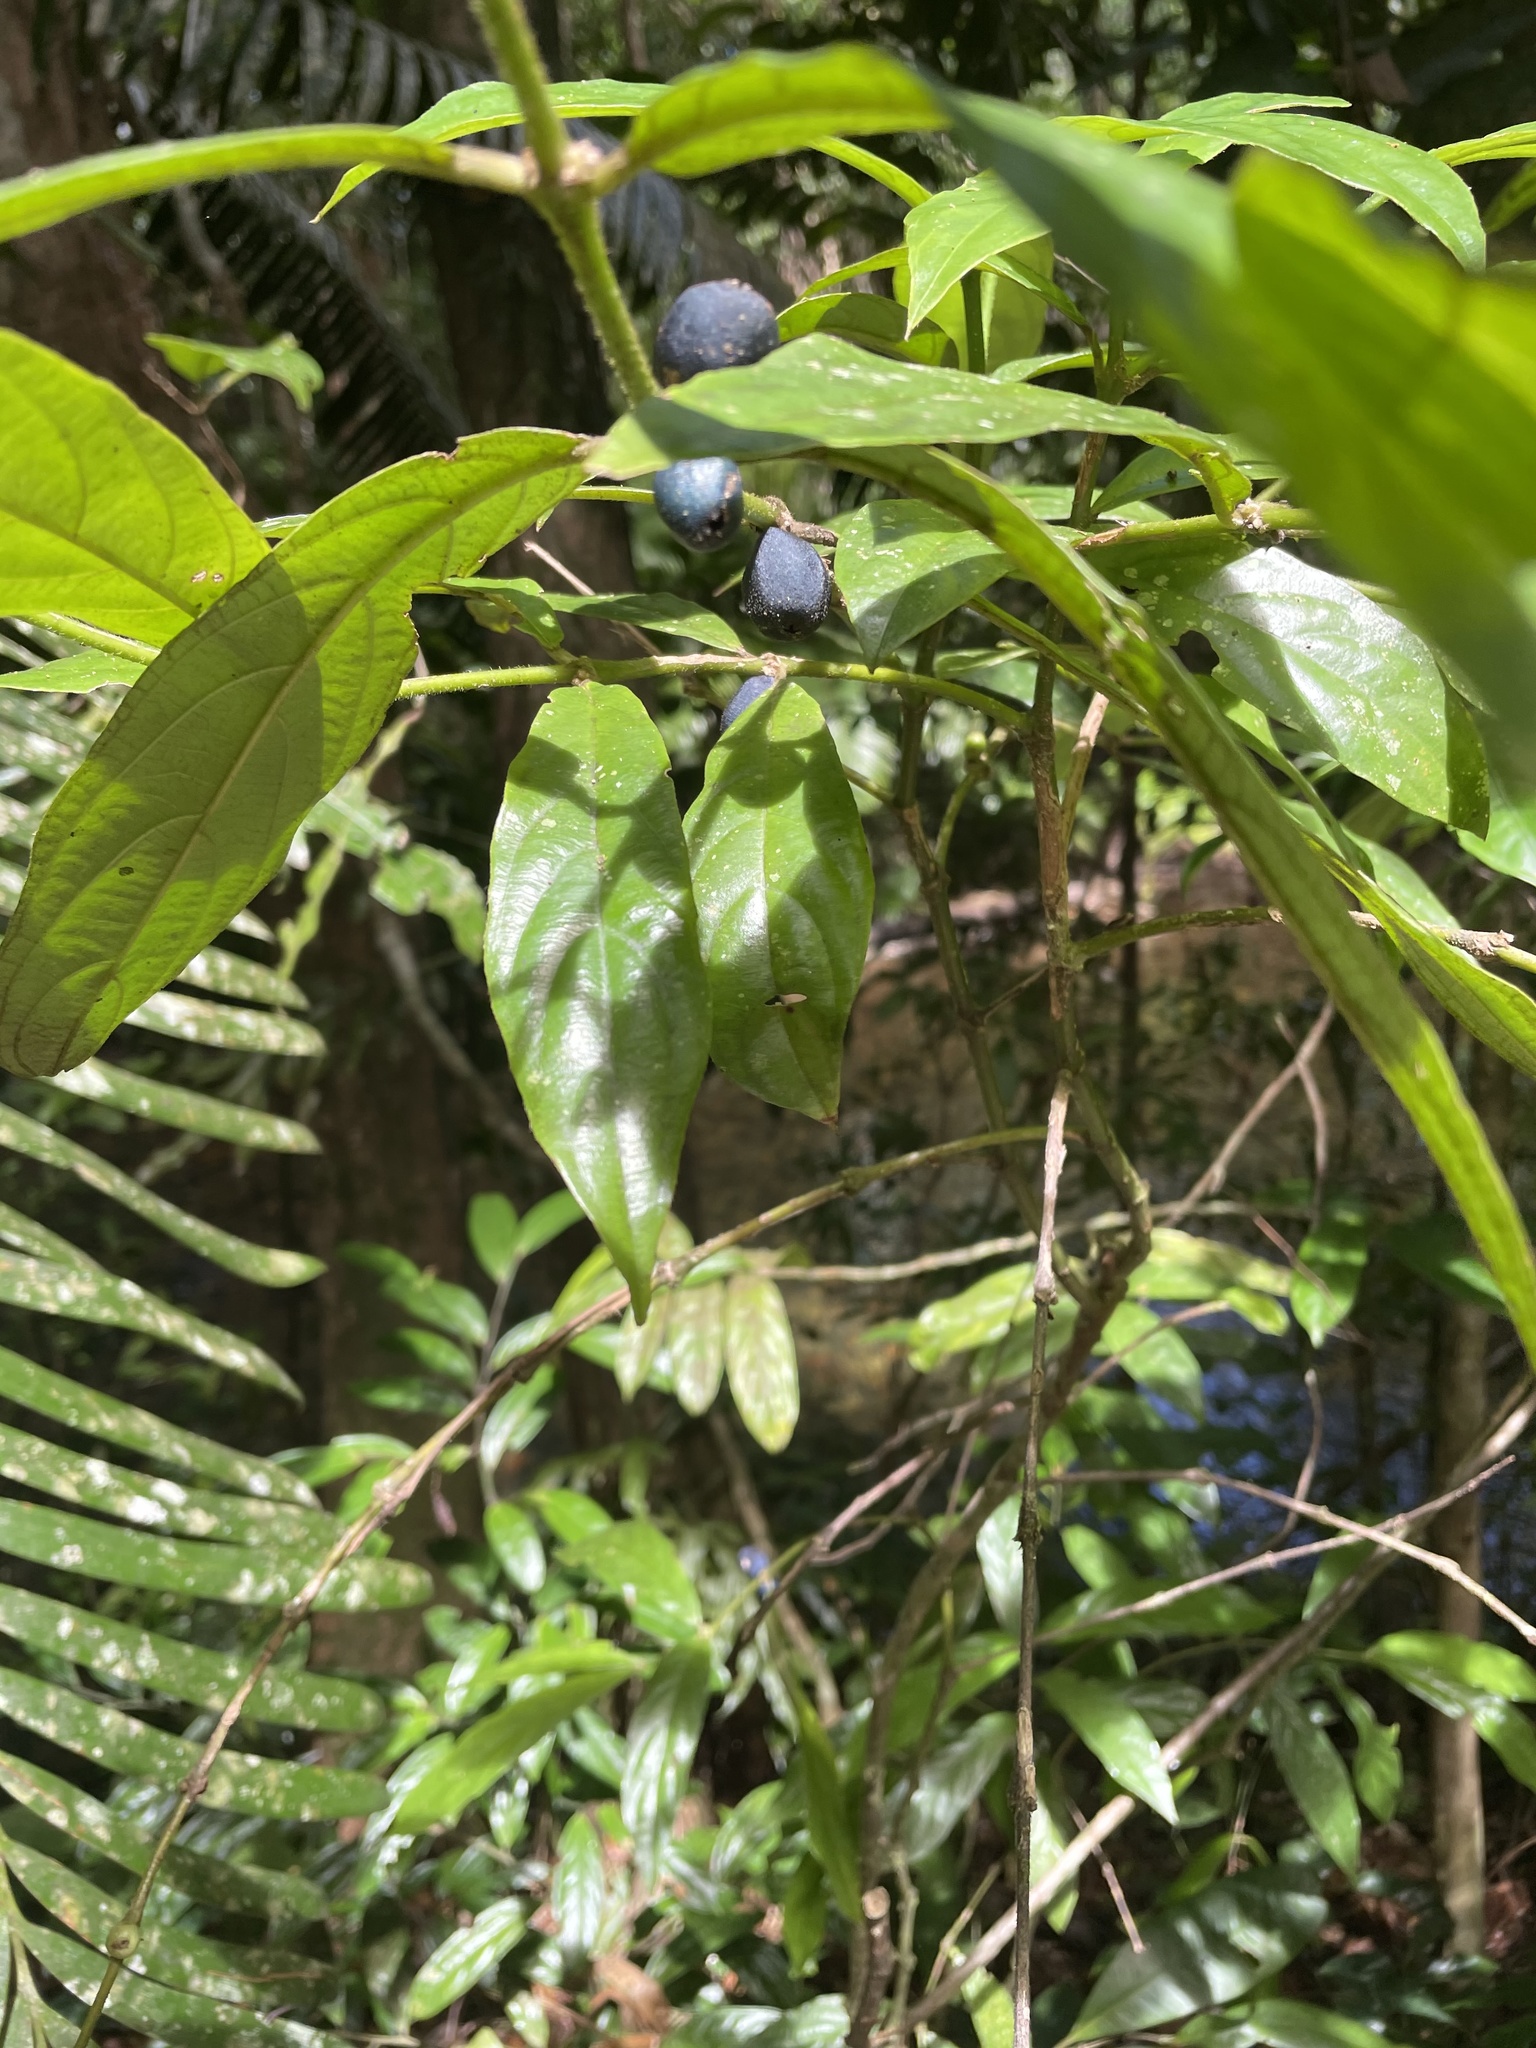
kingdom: Plantae
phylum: Tracheophyta
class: Magnoliopsida
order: Gentianales
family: Rubiaceae
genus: Lasianthus
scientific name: Lasianthus chlorocarpus
